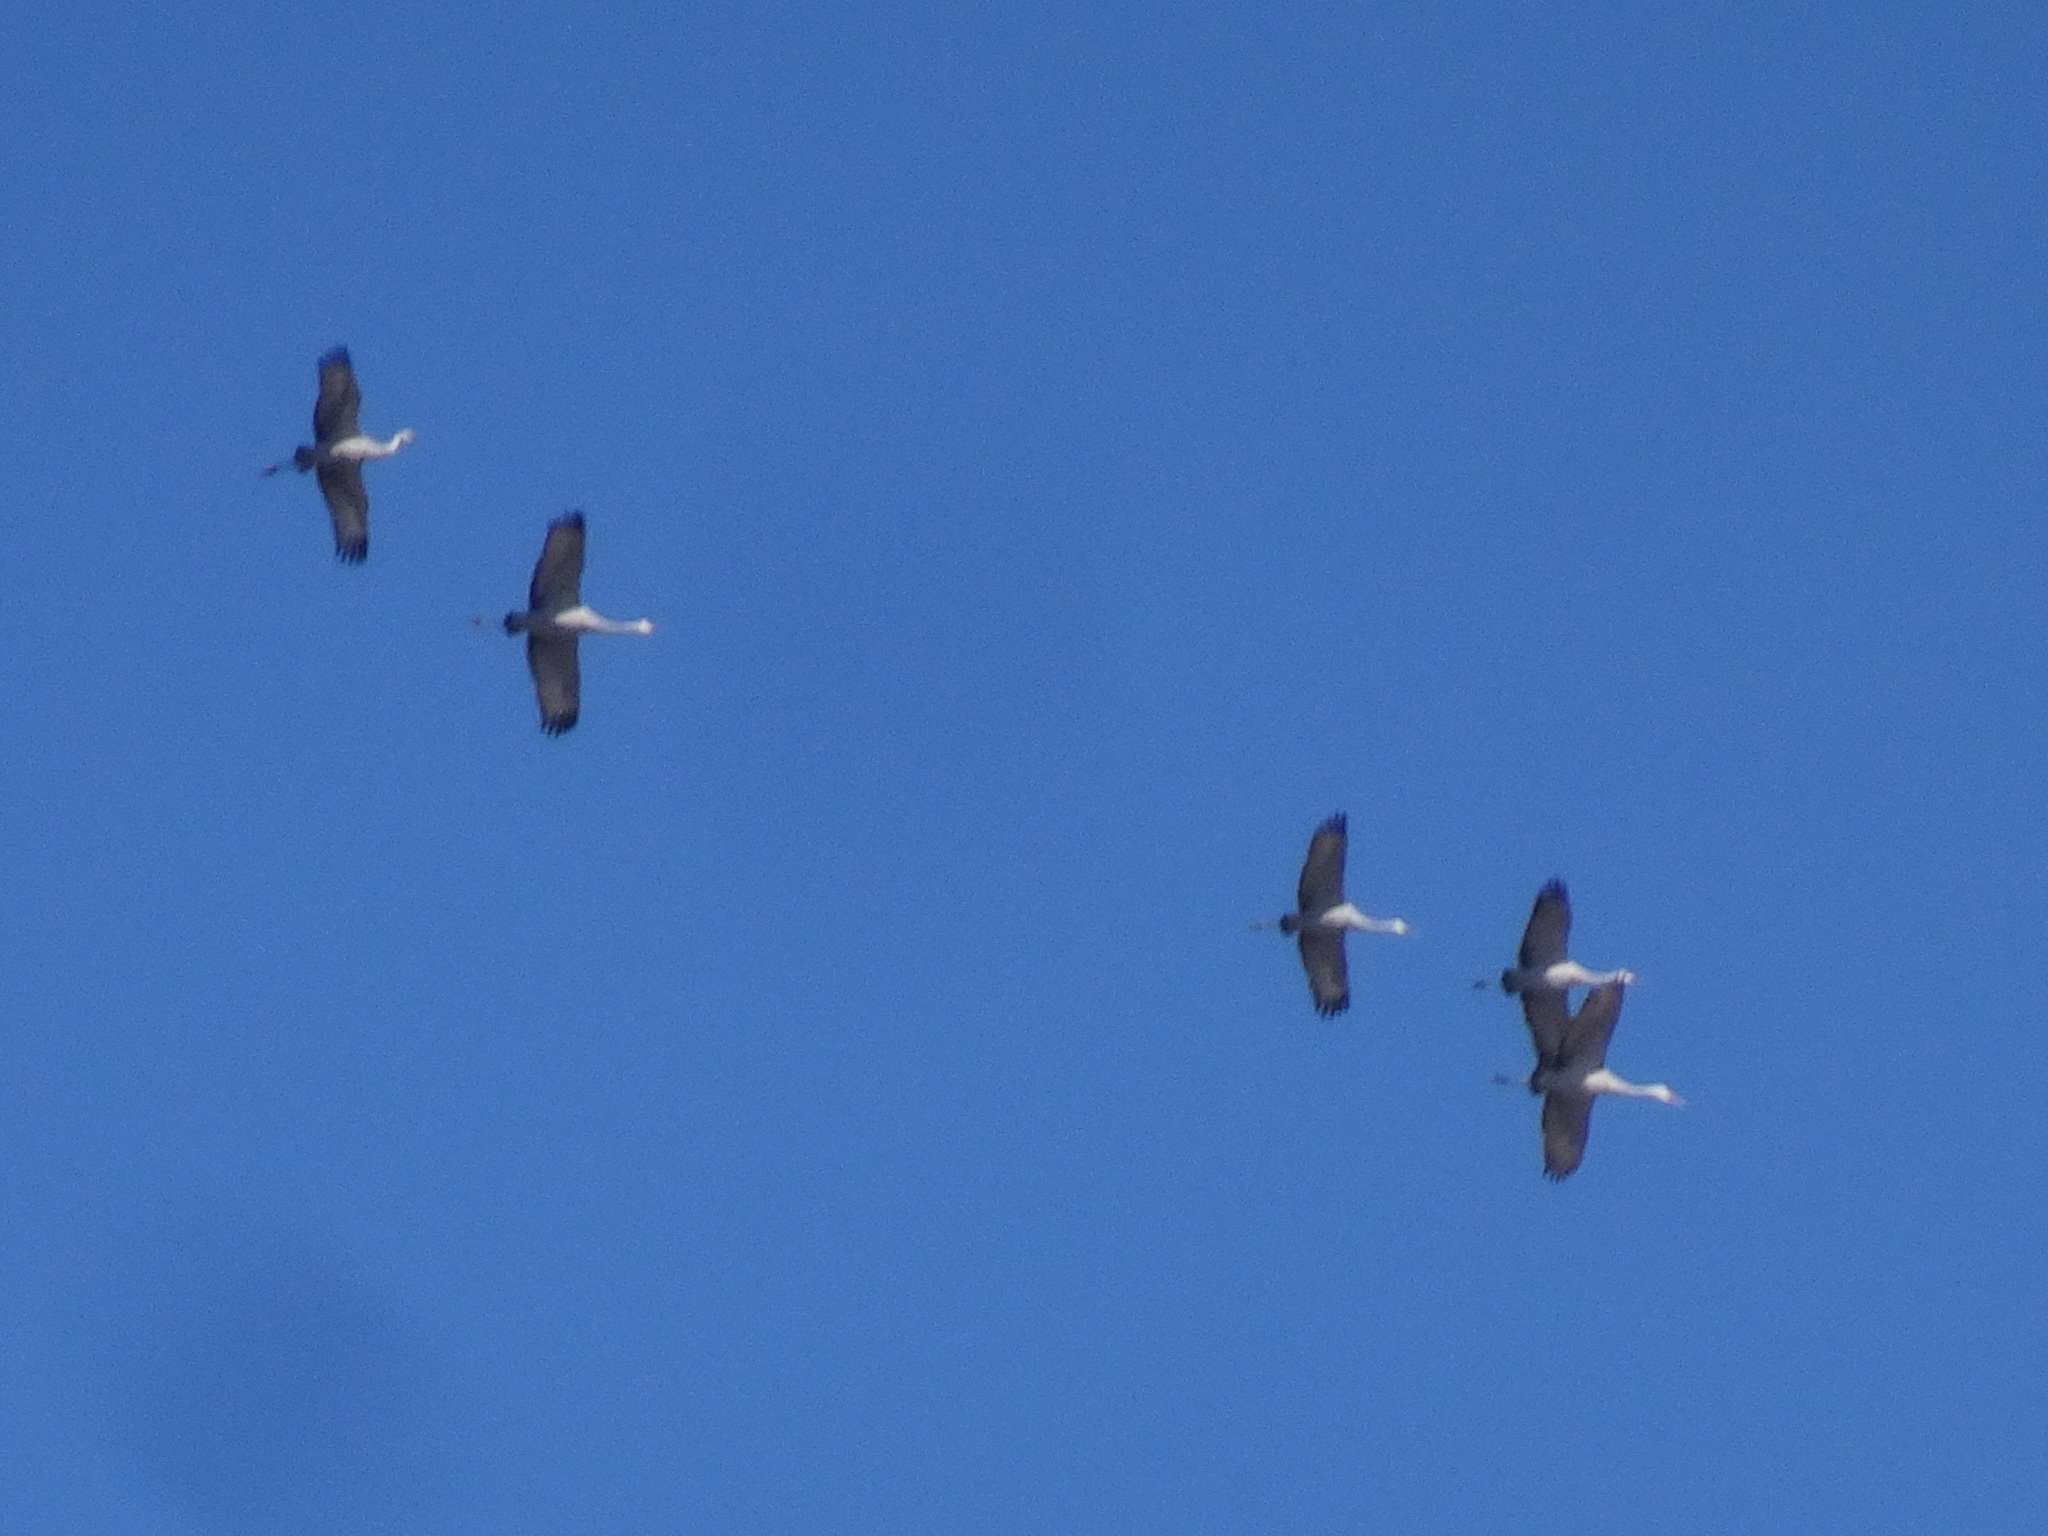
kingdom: Animalia
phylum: Chordata
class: Aves
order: Gruiformes
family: Gruidae
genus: Grus
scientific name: Grus canadensis
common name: Sandhill crane
